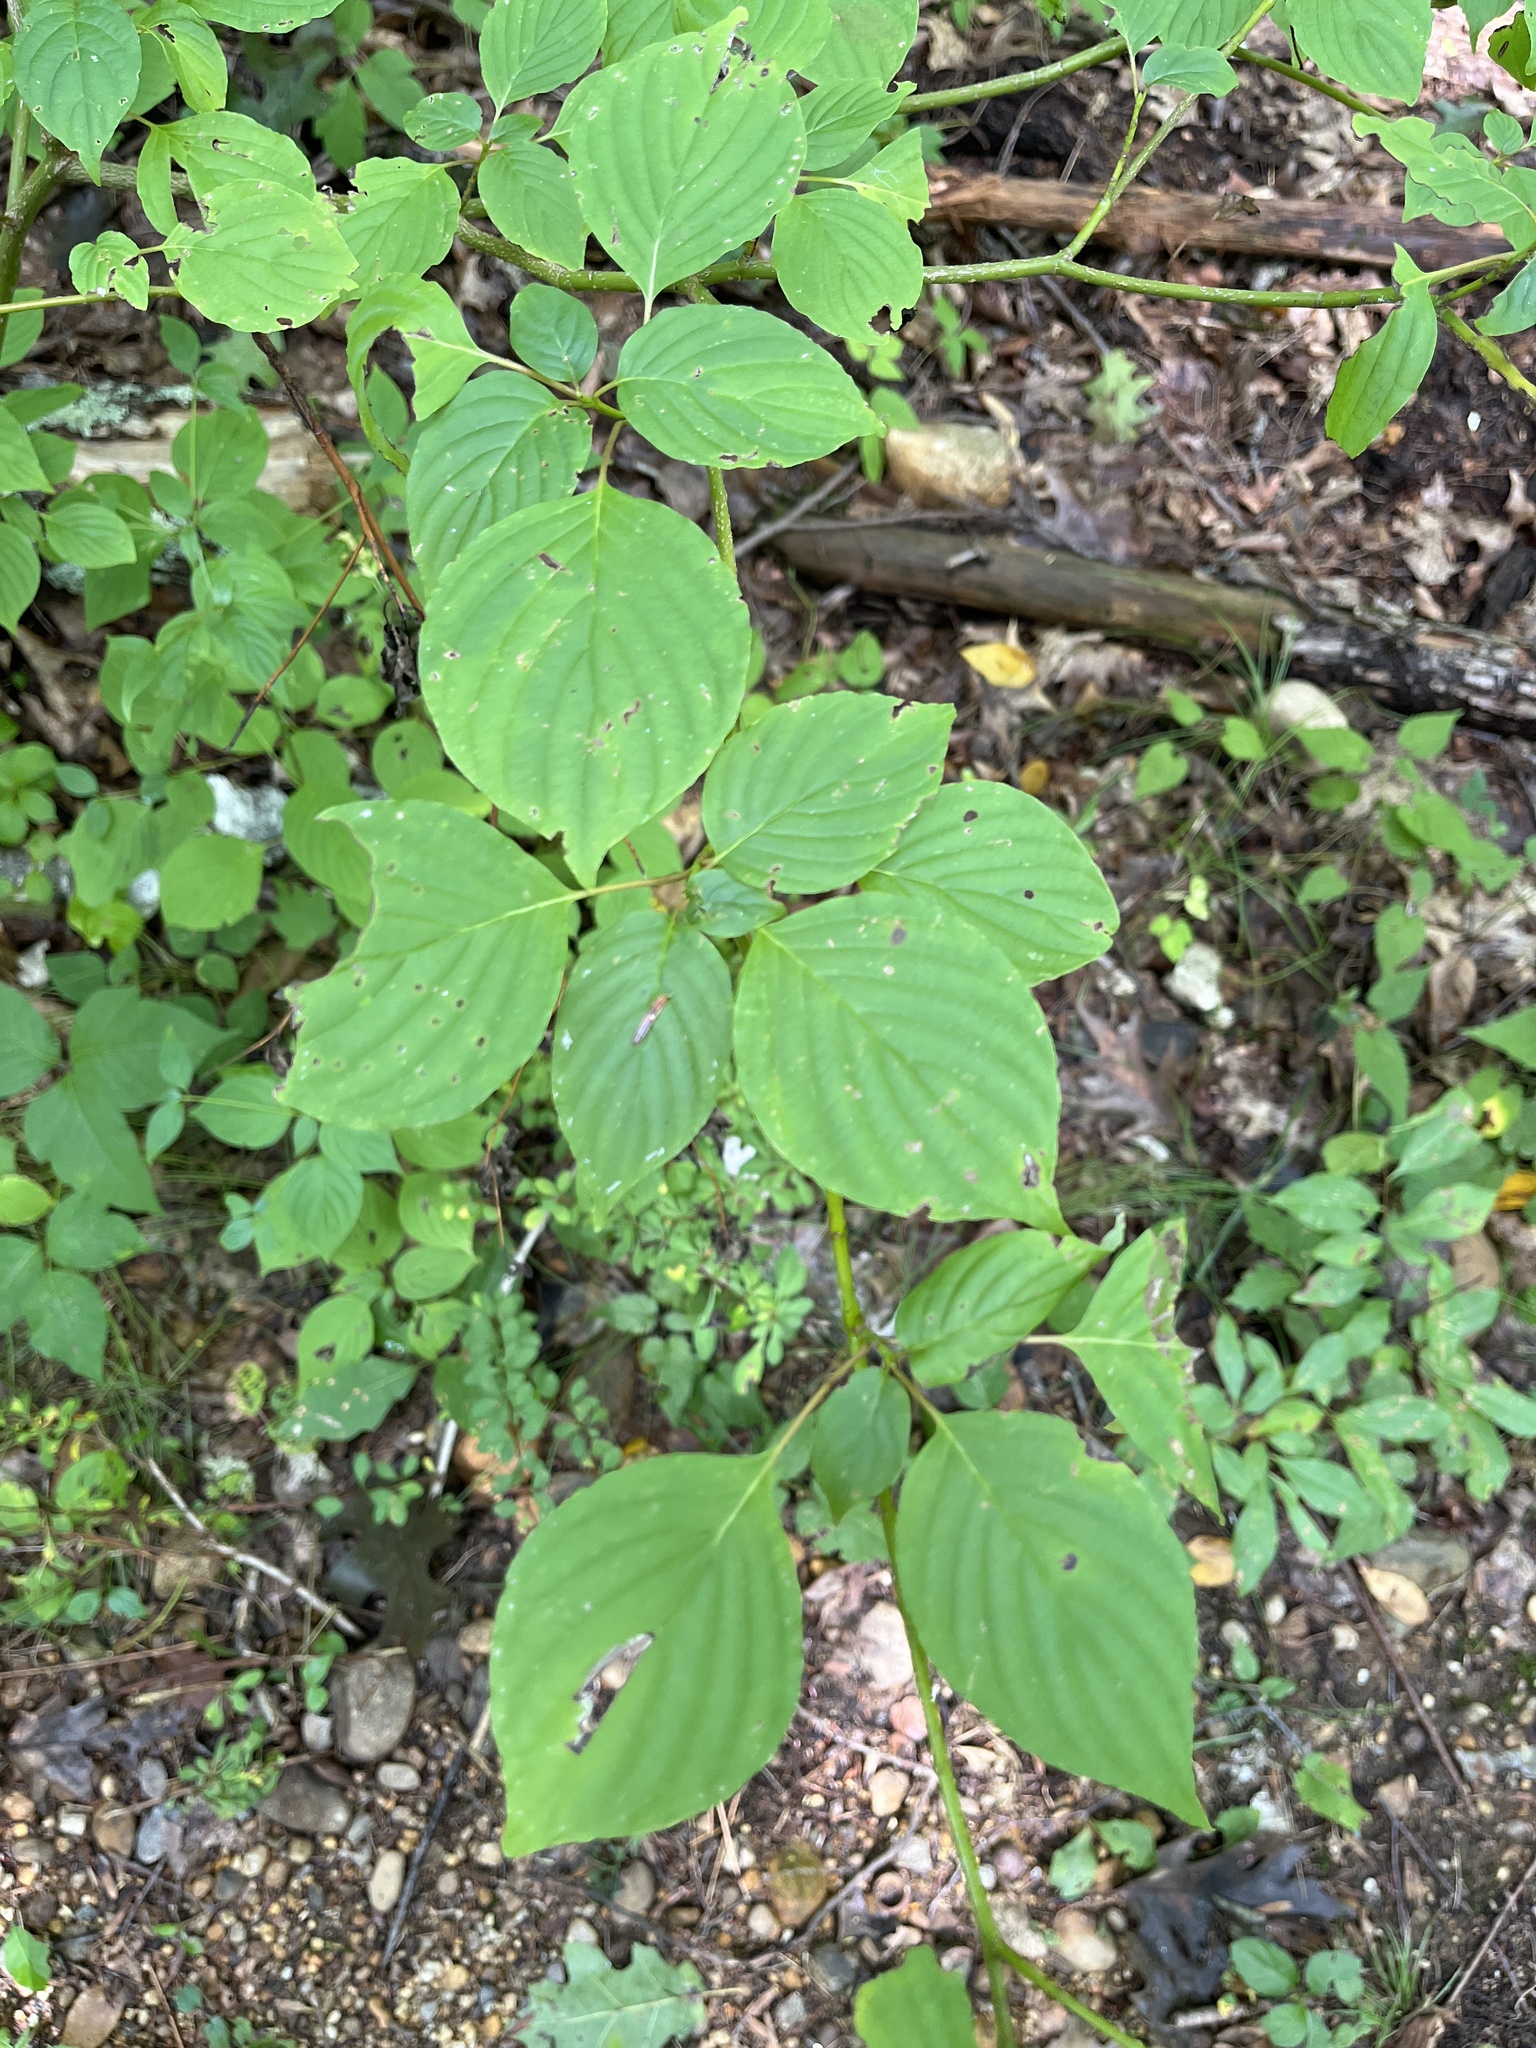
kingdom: Plantae
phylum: Tracheophyta
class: Magnoliopsida
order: Cornales
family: Cornaceae
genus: Cornus
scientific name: Cornus alternifolia
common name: Pagoda dogwood
